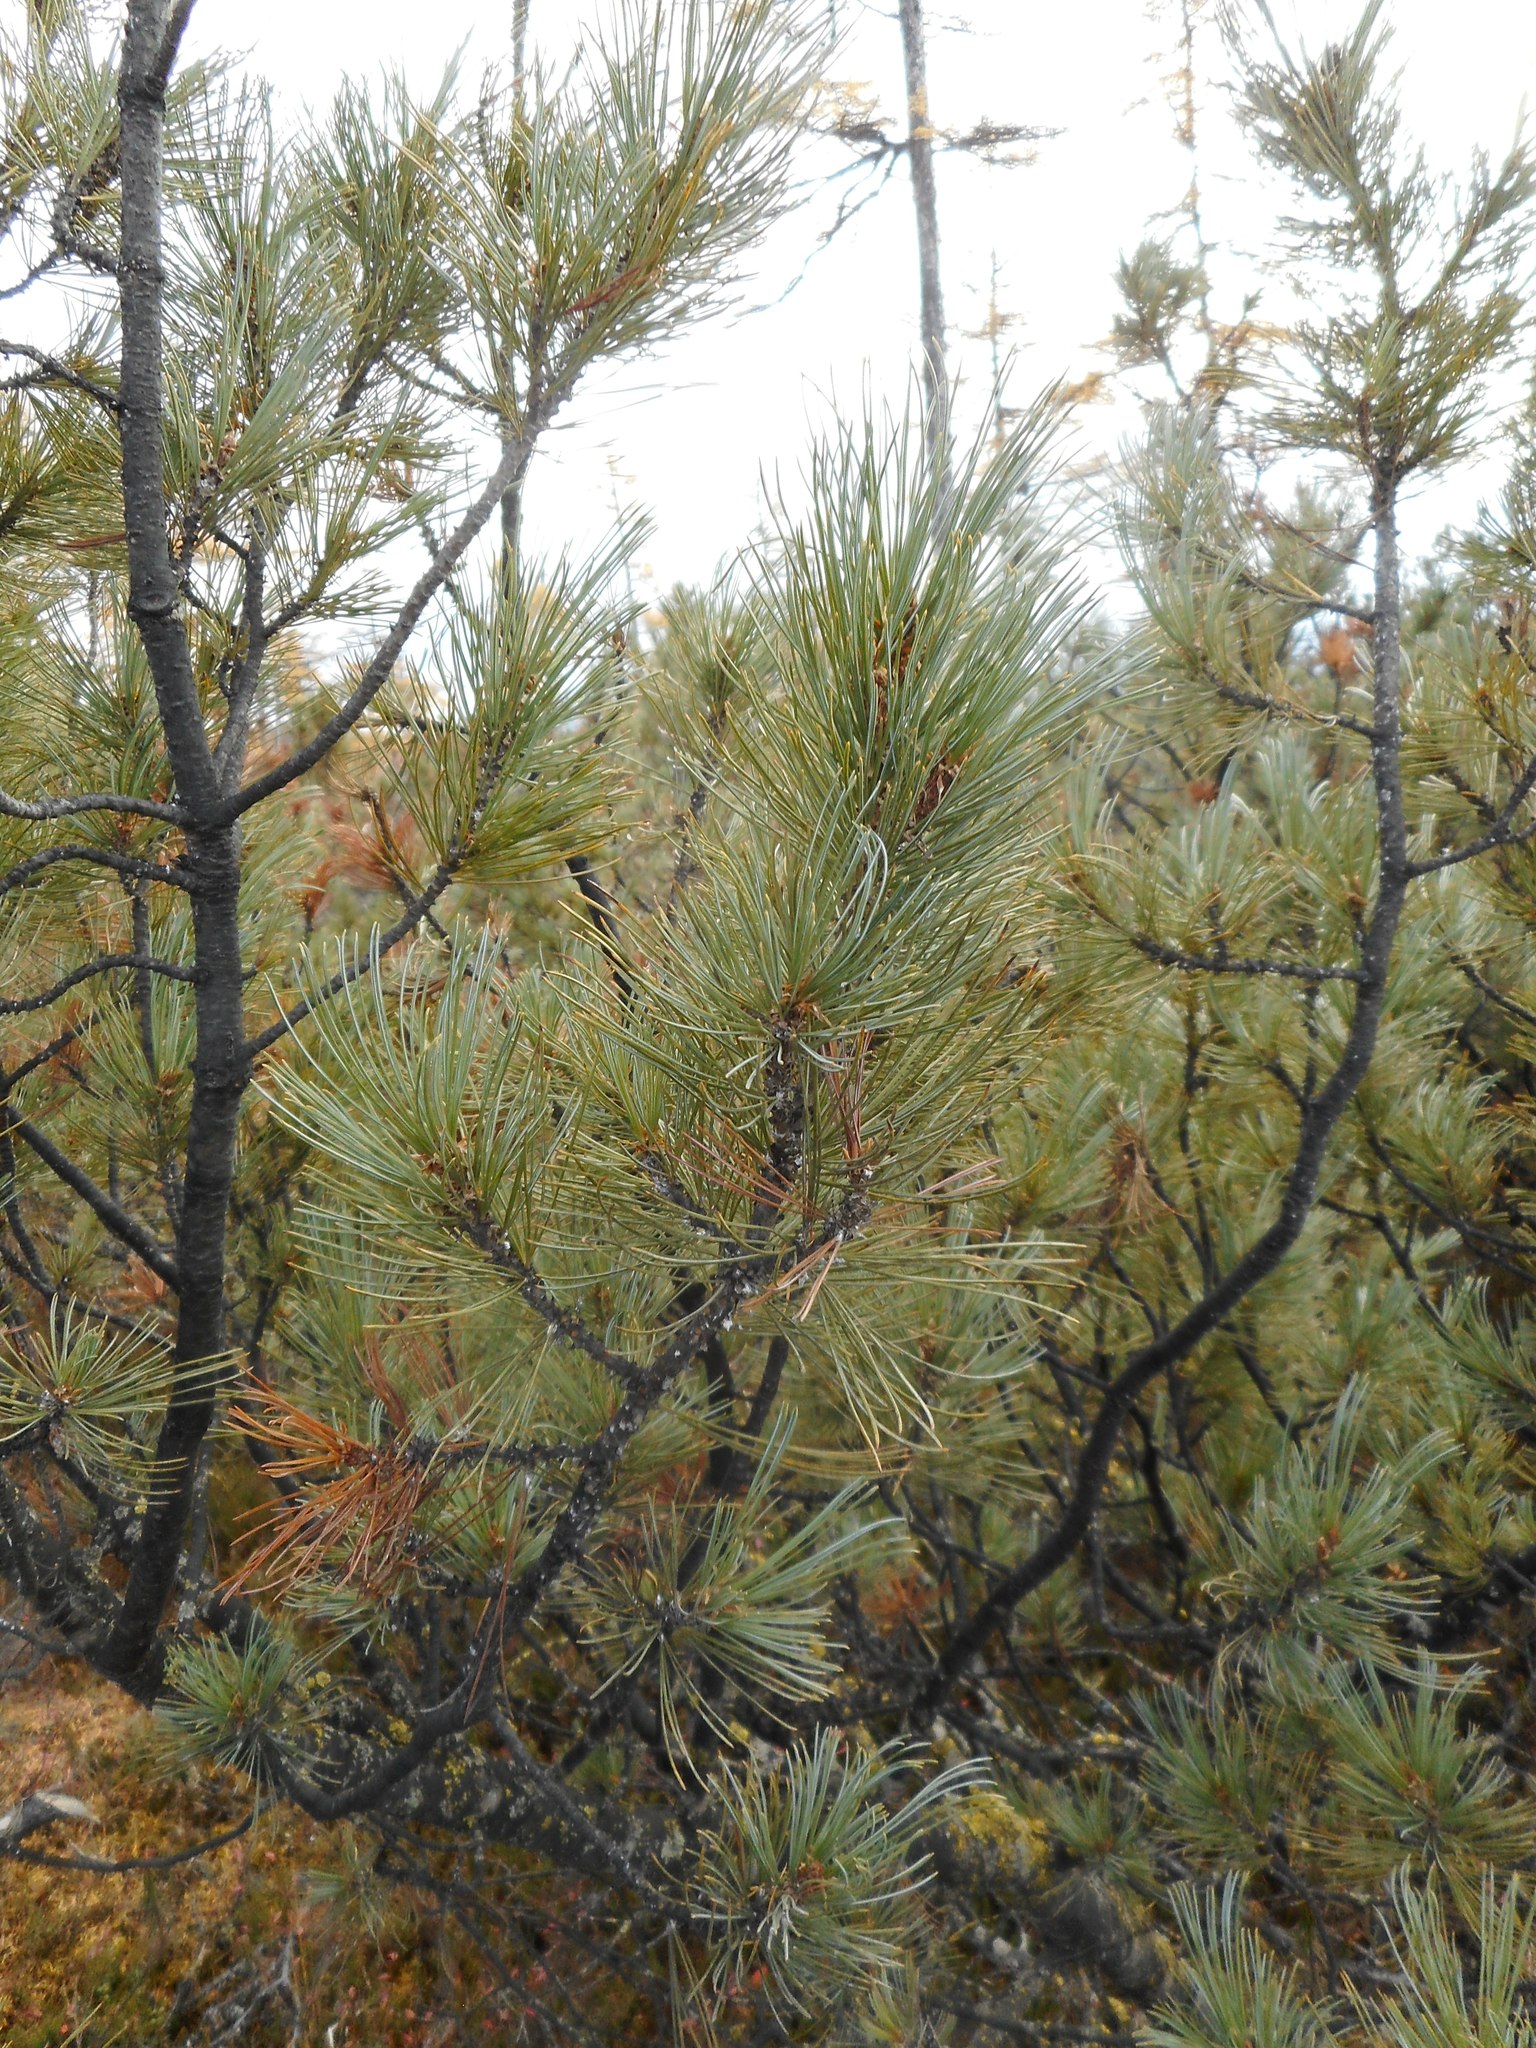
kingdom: Plantae
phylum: Tracheophyta
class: Pinopsida
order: Pinales
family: Pinaceae
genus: Pinus
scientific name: Pinus pumila
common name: Dwarf siberian pine
